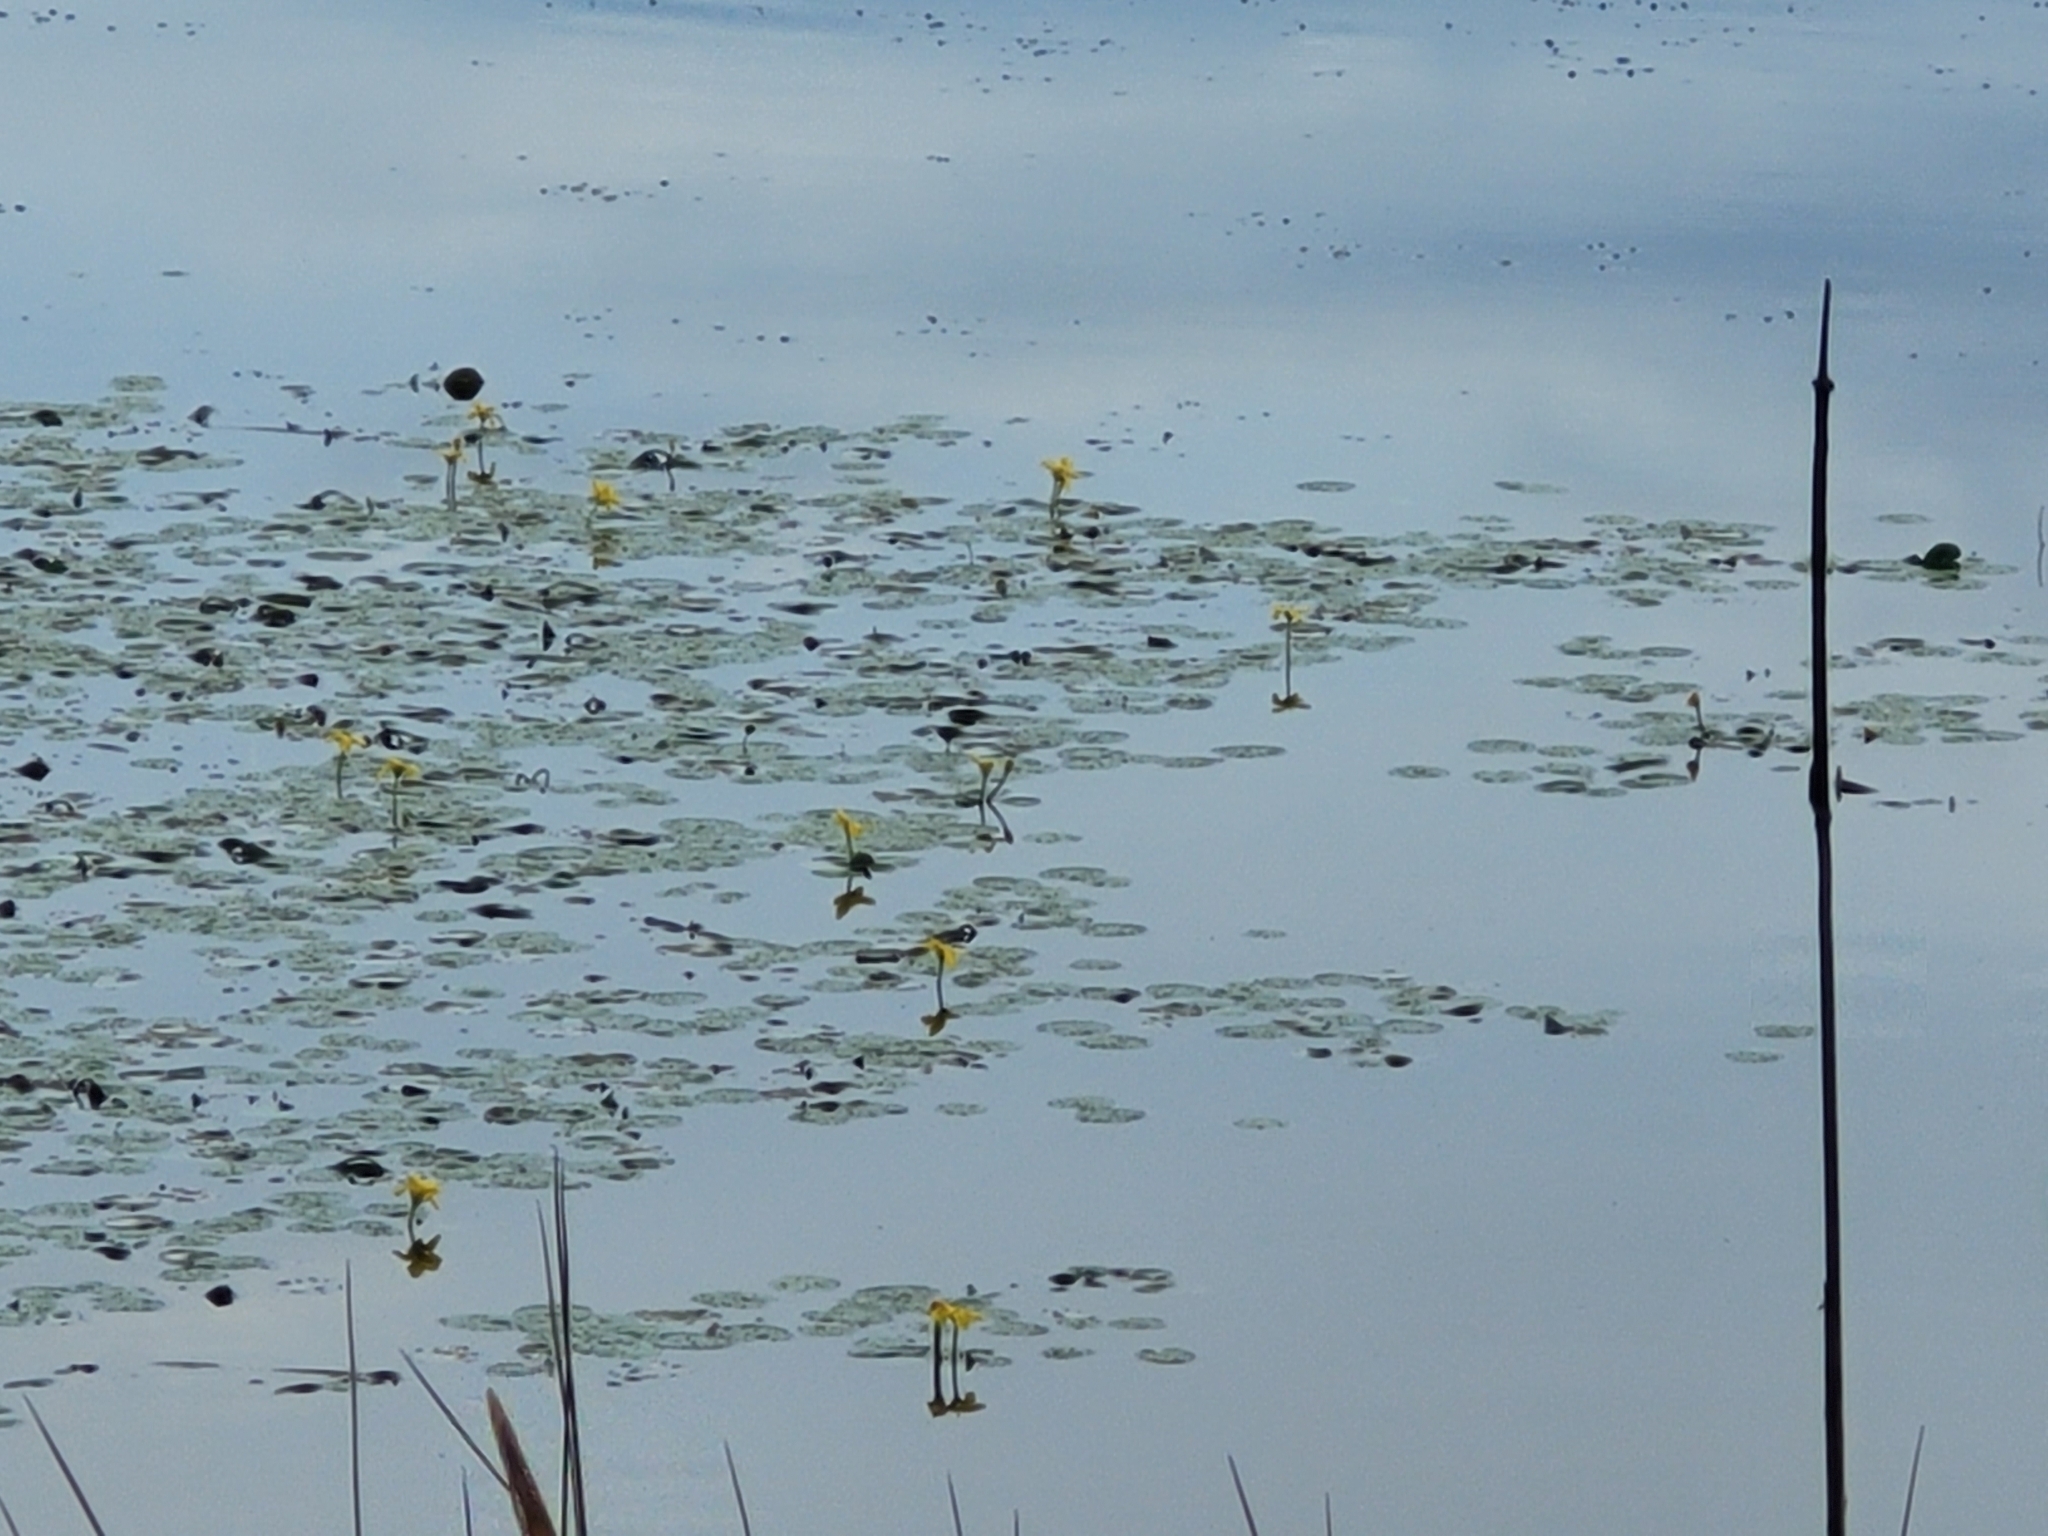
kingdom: Plantae
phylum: Tracheophyta
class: Magnoliopsida
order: Asterales
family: Menyanthaceae
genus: Nymphoides
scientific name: Nymphoides peltata
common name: Fringed water-lily
